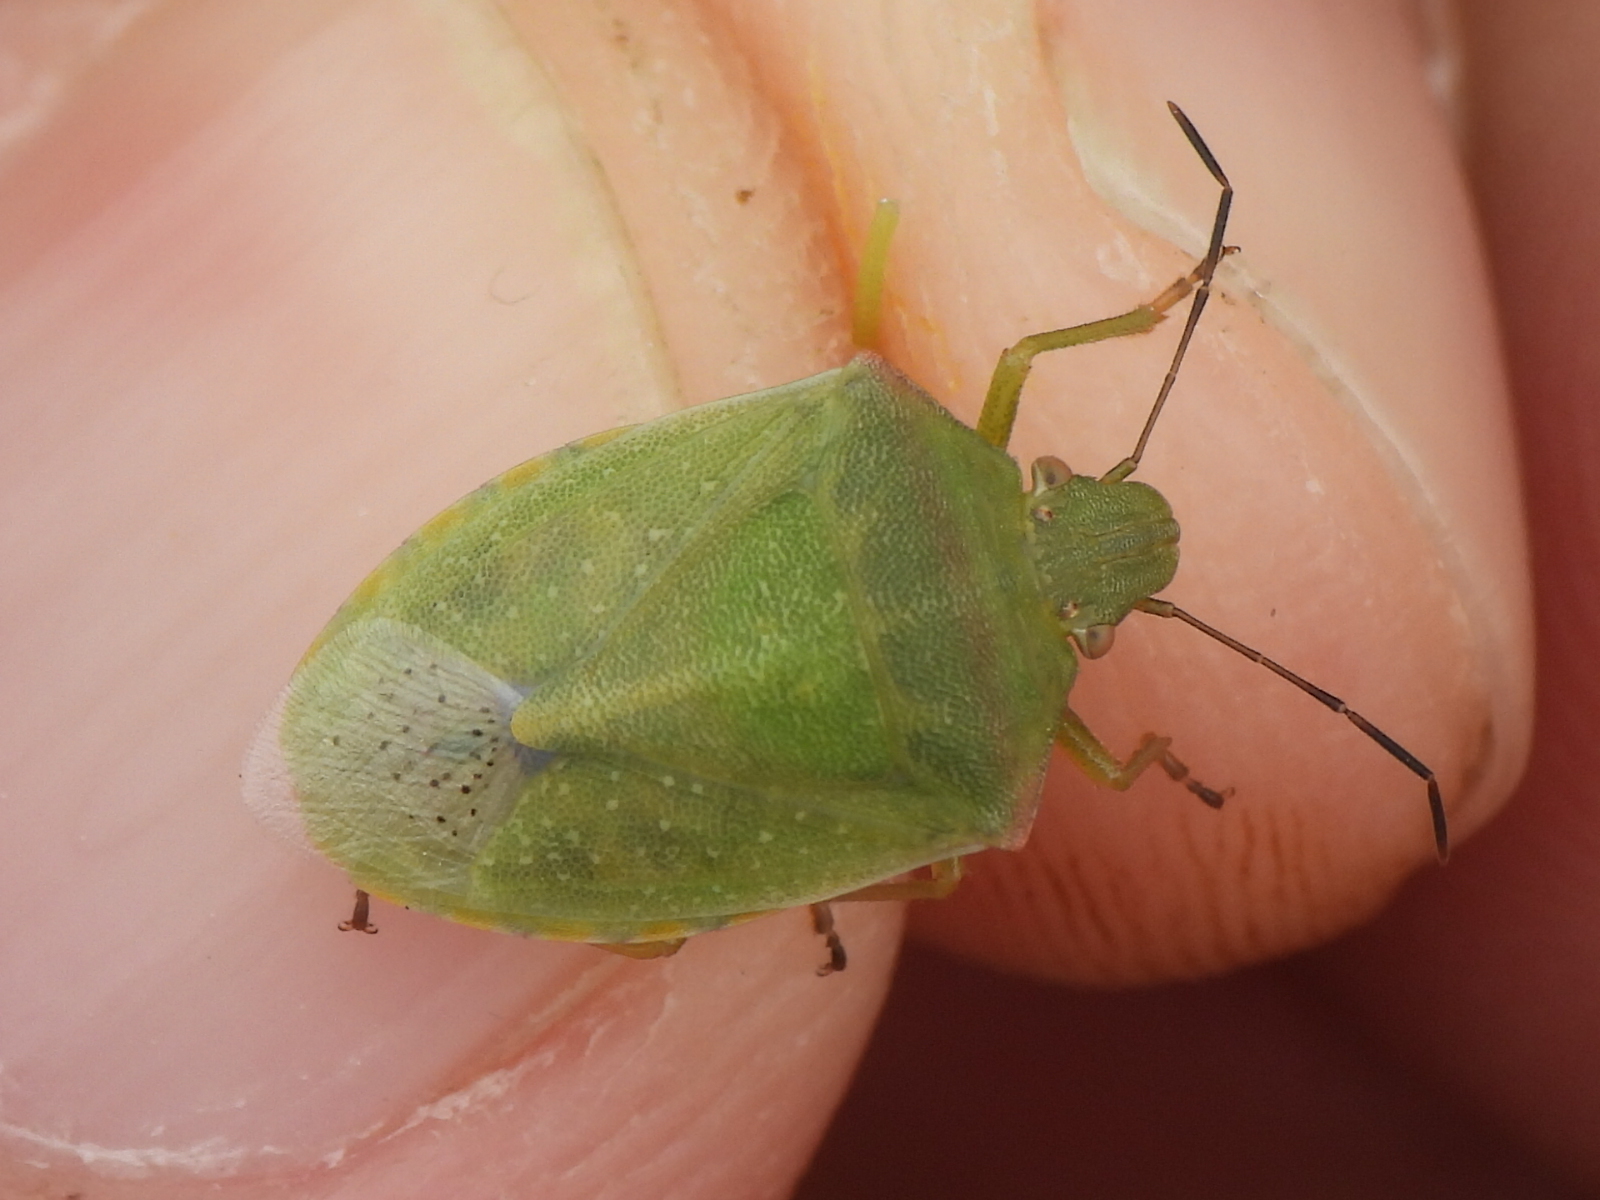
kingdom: Animalia
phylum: Arthropoda
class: Insecta
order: Hemiptera
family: Pentatomidae
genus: Thyanta
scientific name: Thyanta custator
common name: Stink bug
